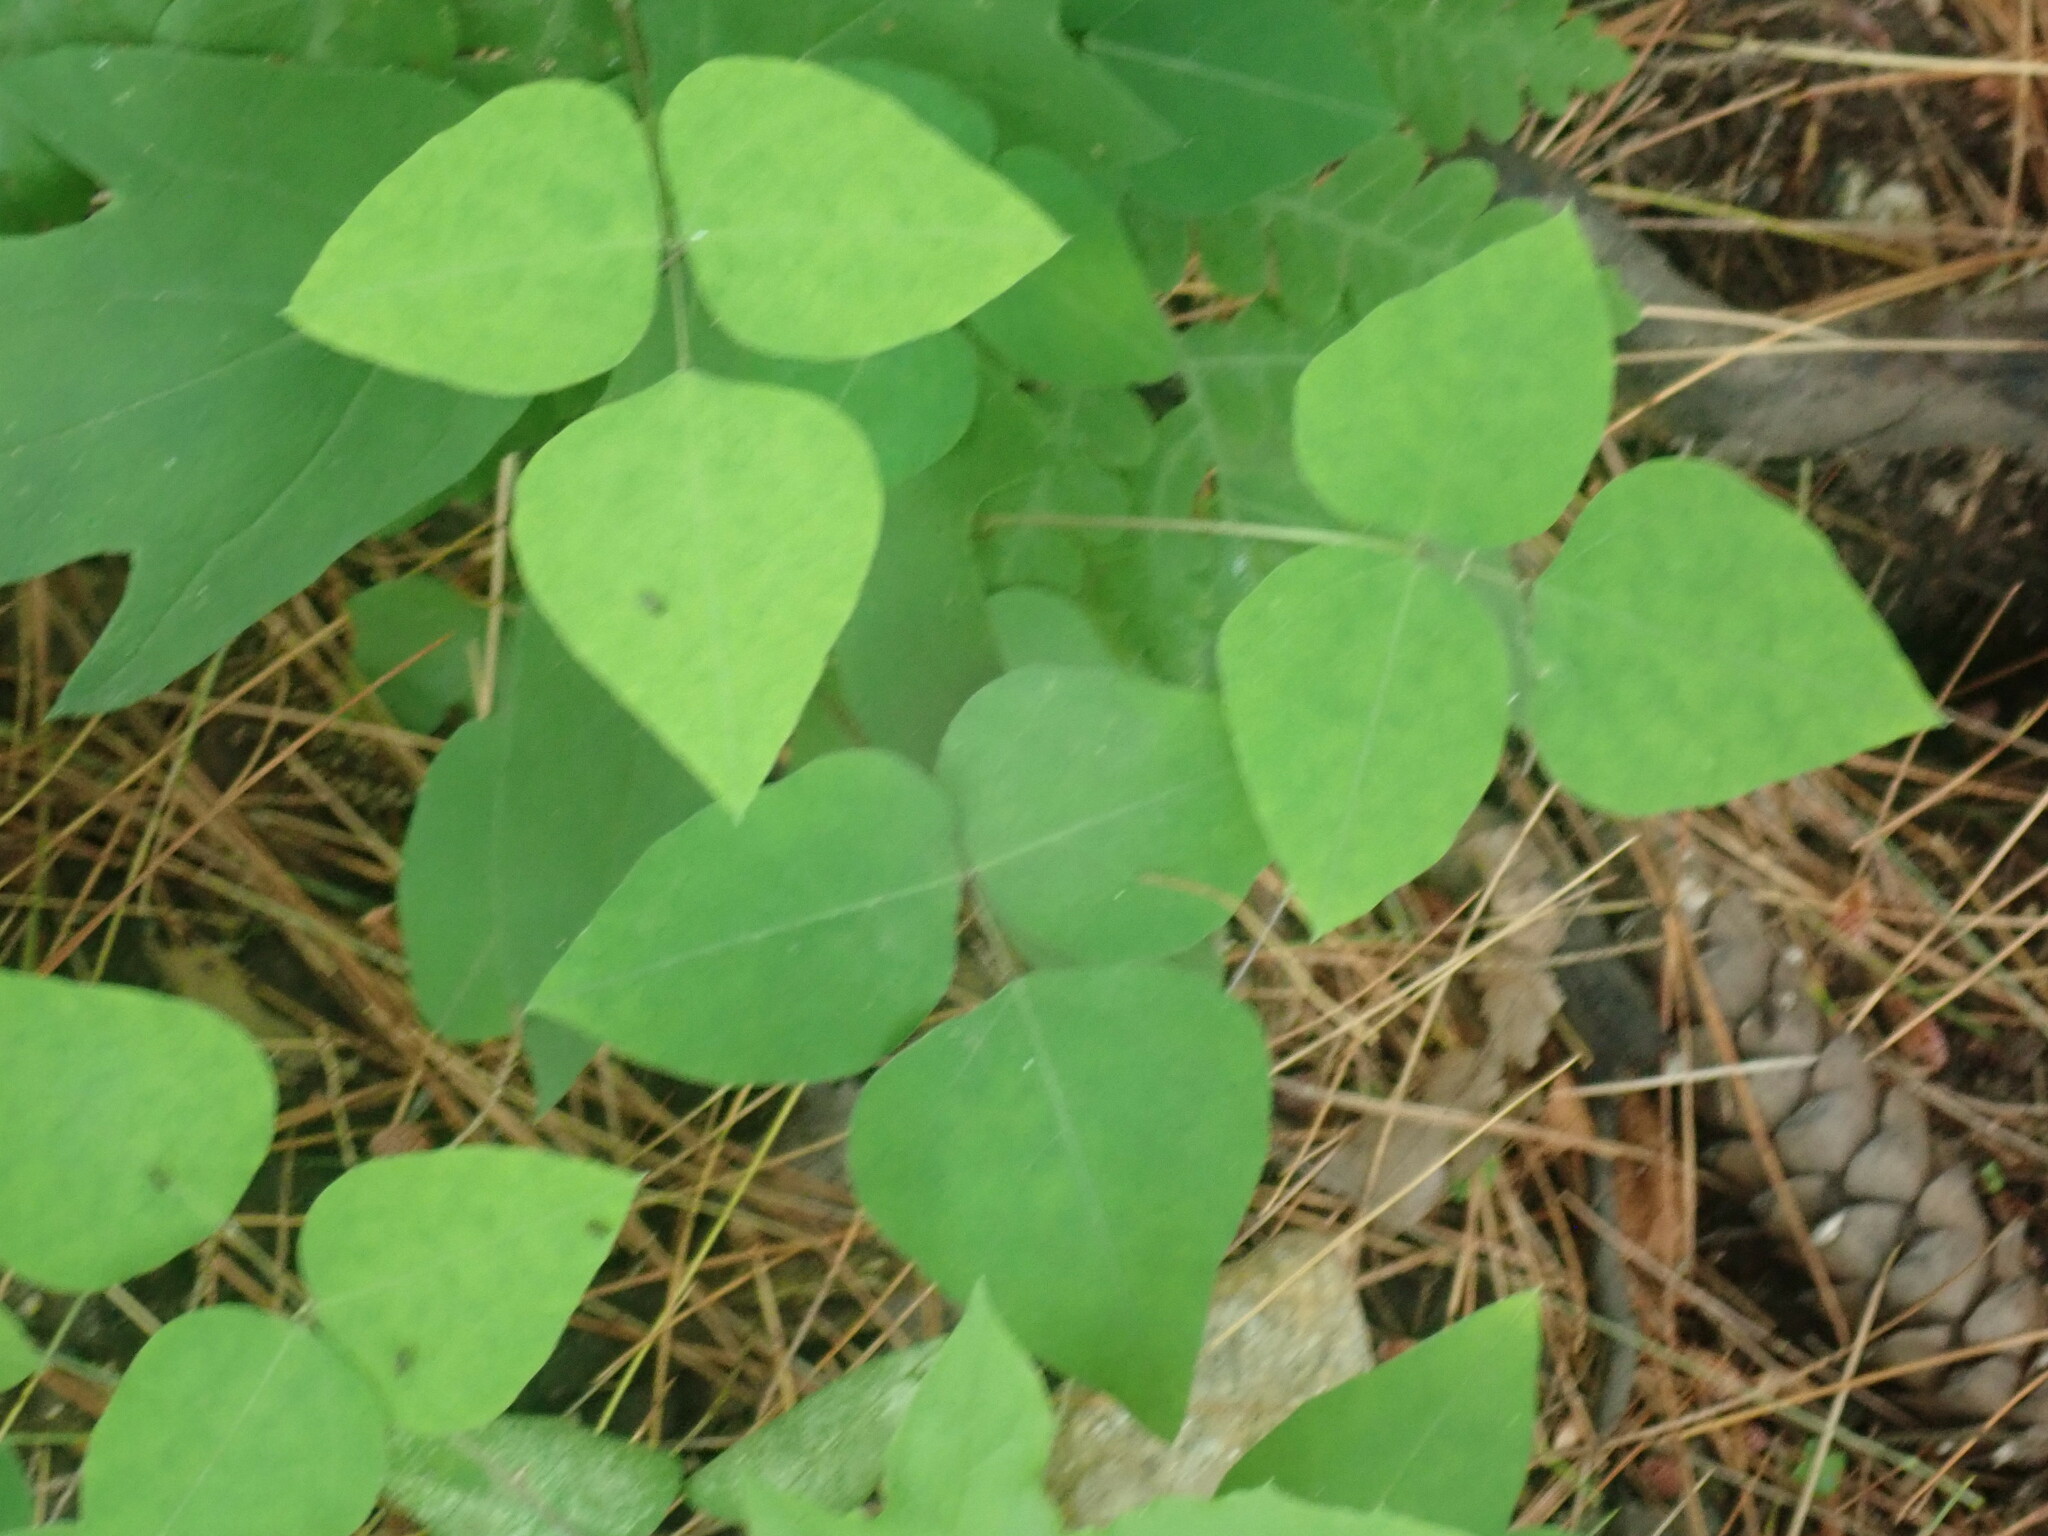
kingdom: Plantae
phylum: Tracheophyta
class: Magnoliopsida
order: Fabales
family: Fabaceae
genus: Amphicarpaea
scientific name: Amphicarpaea bracteata
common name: American hog peanut
